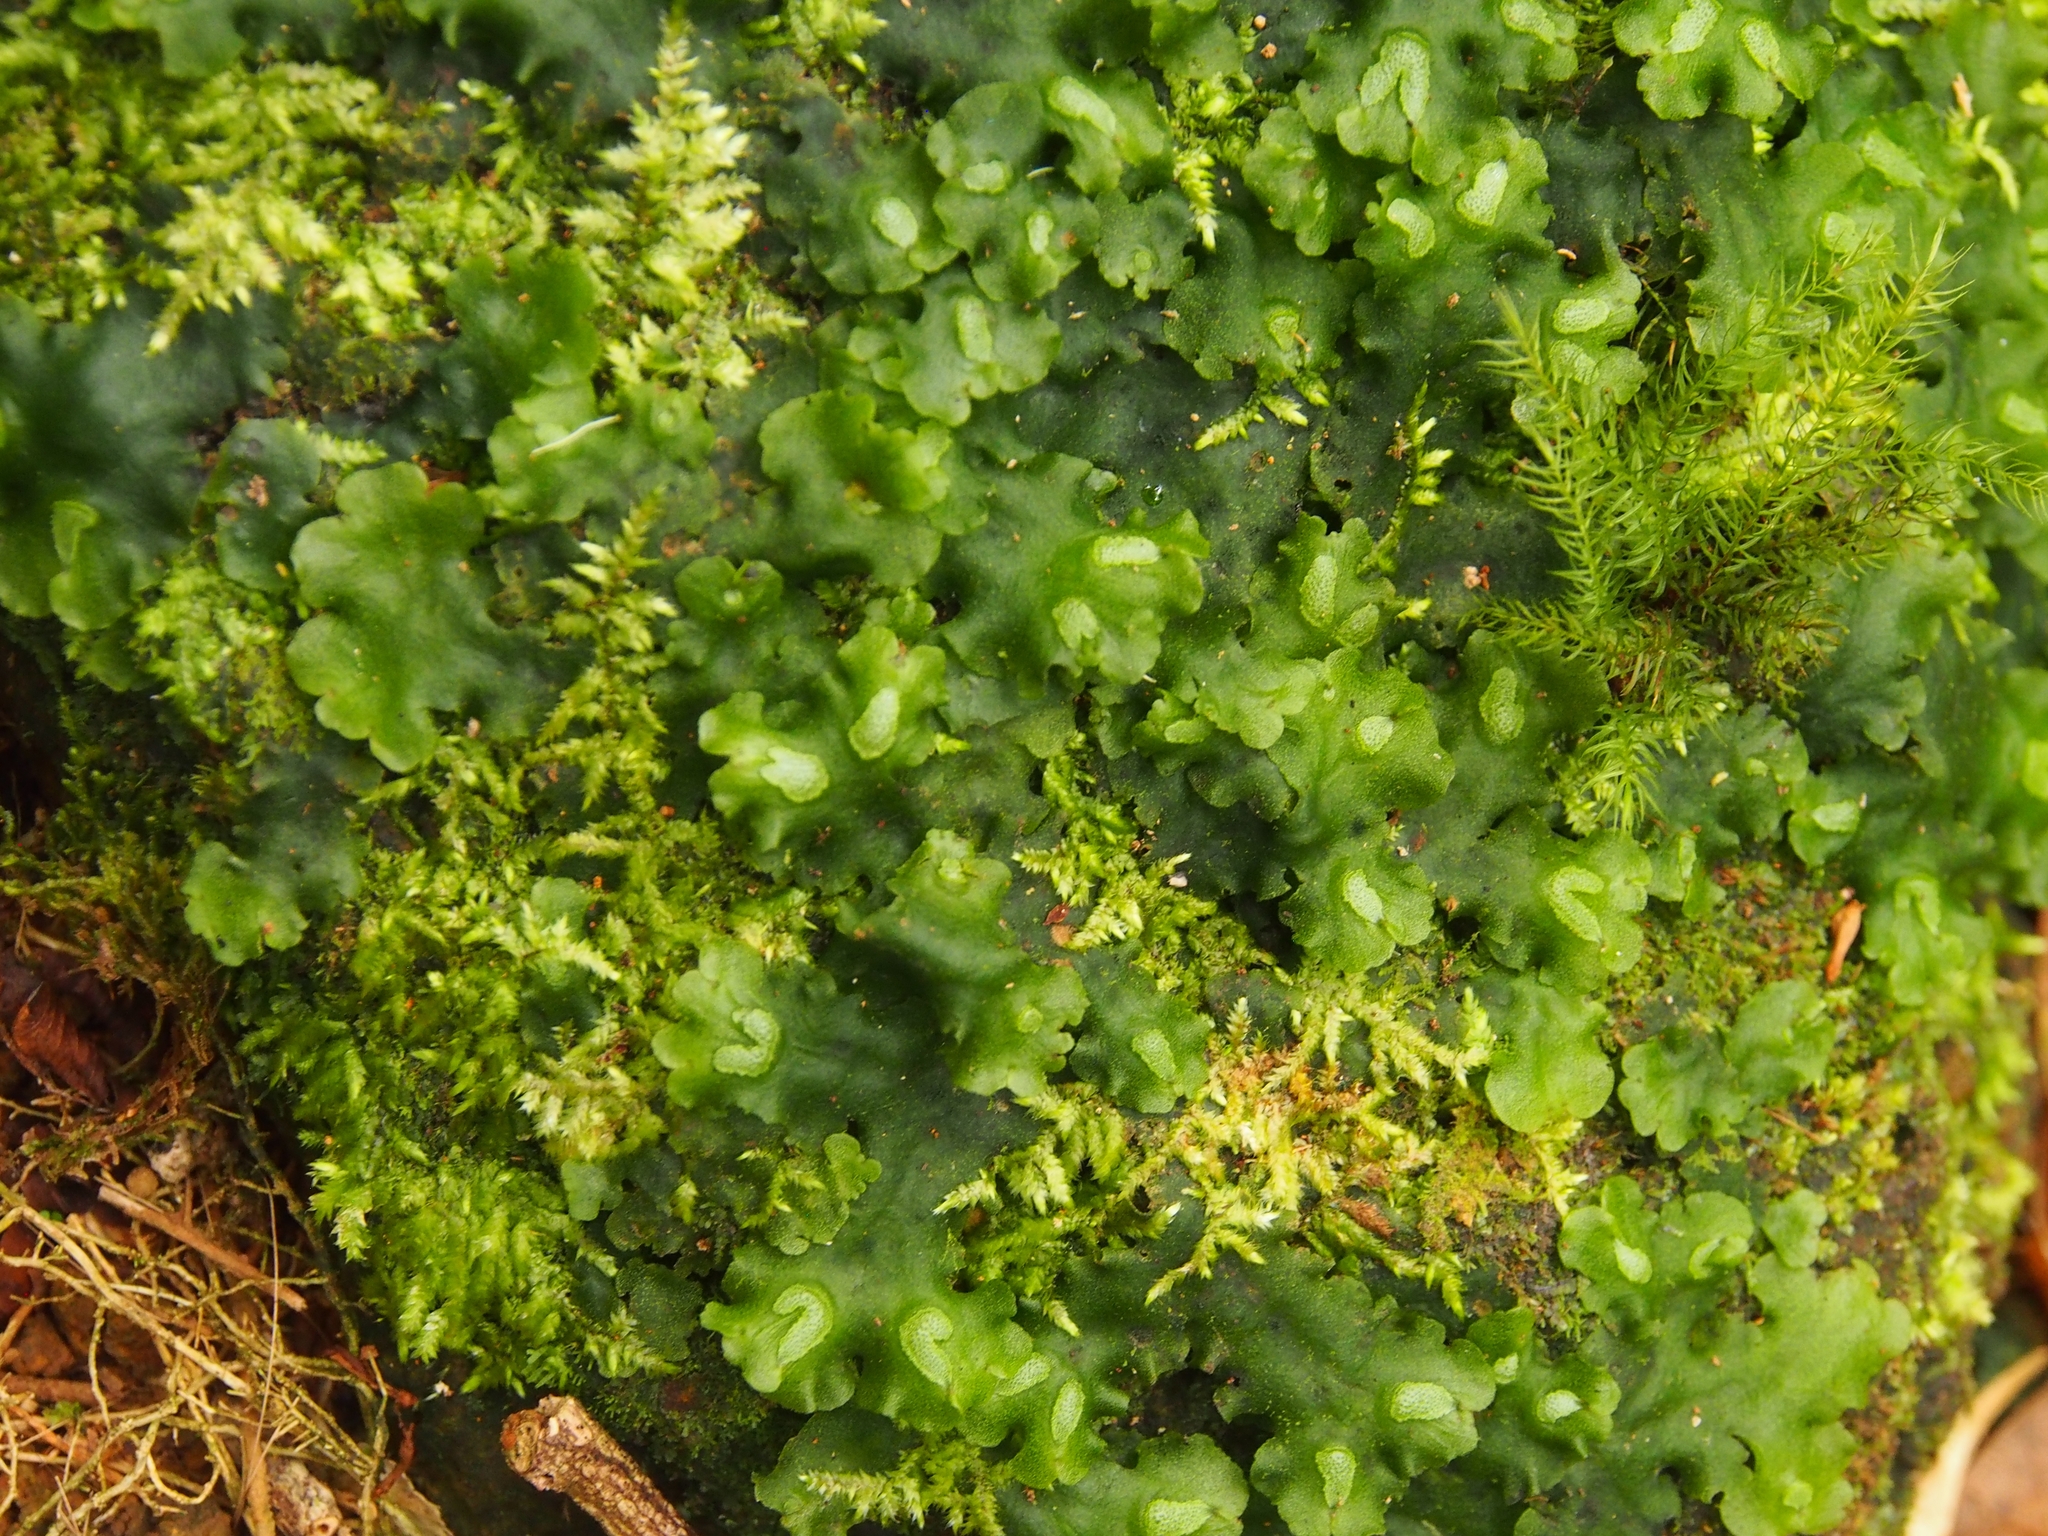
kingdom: Plantae
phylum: Marchantiophyta
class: Marchantiopsida
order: Marchantiales
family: Monocleaceae
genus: Monoclea
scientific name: Monoclea gottschei
